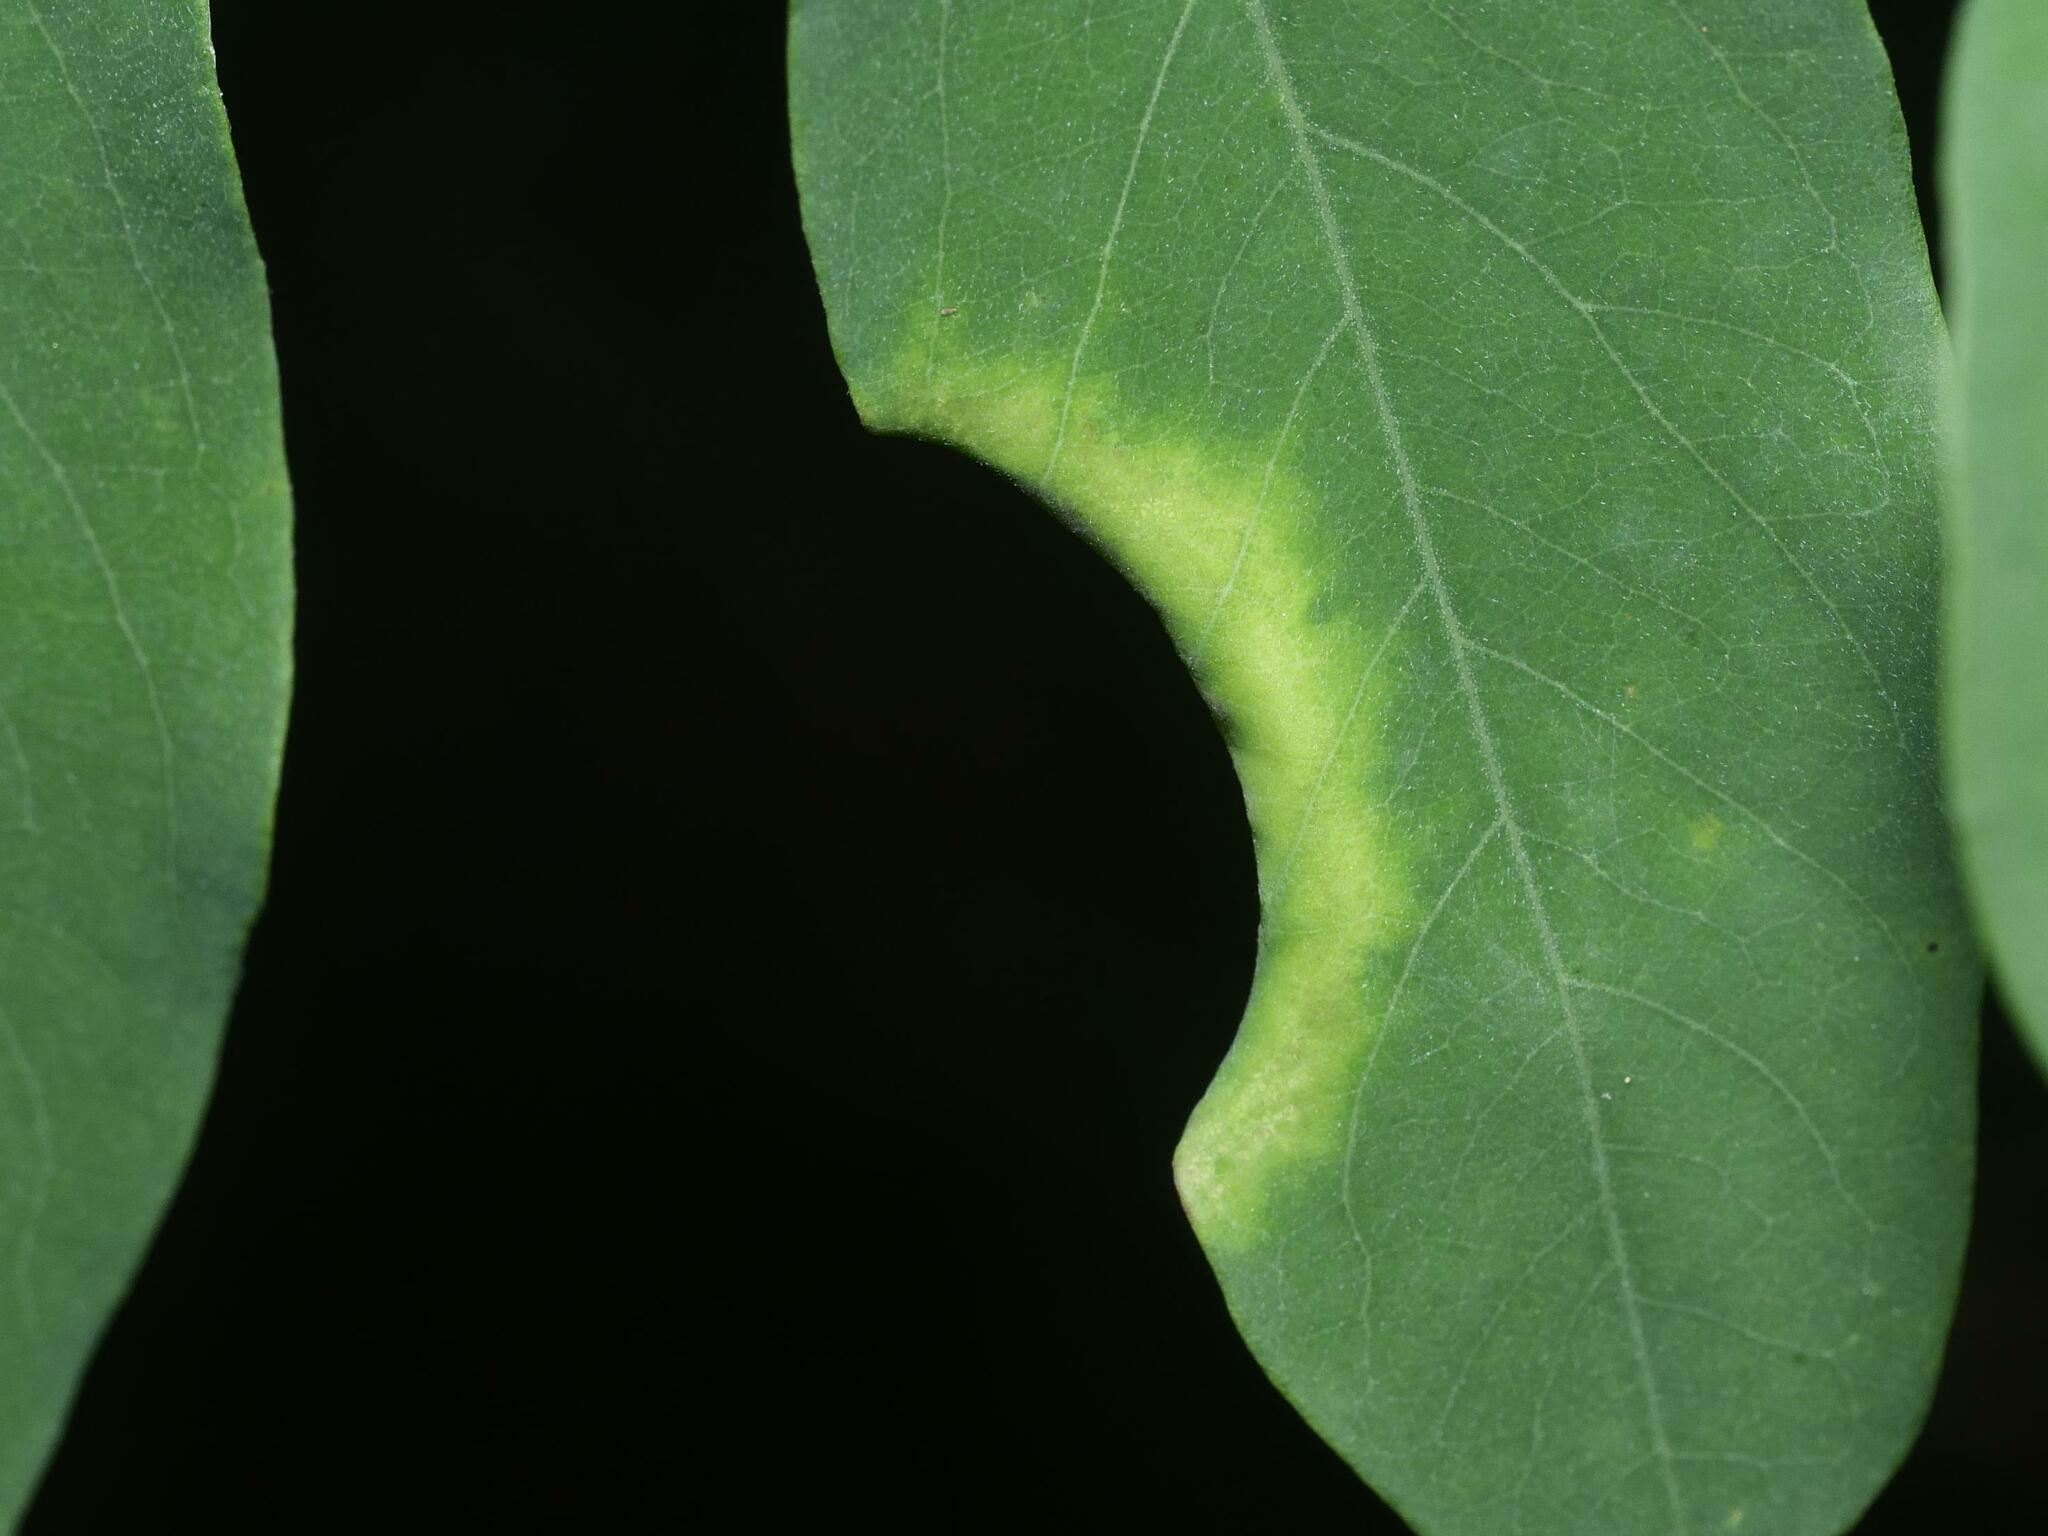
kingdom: Animalia
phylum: Arthropoda
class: Insecta
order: Diptera
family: Cecidomyiidae
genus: Obolodiplosis
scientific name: Obolodiplosis robiniae
